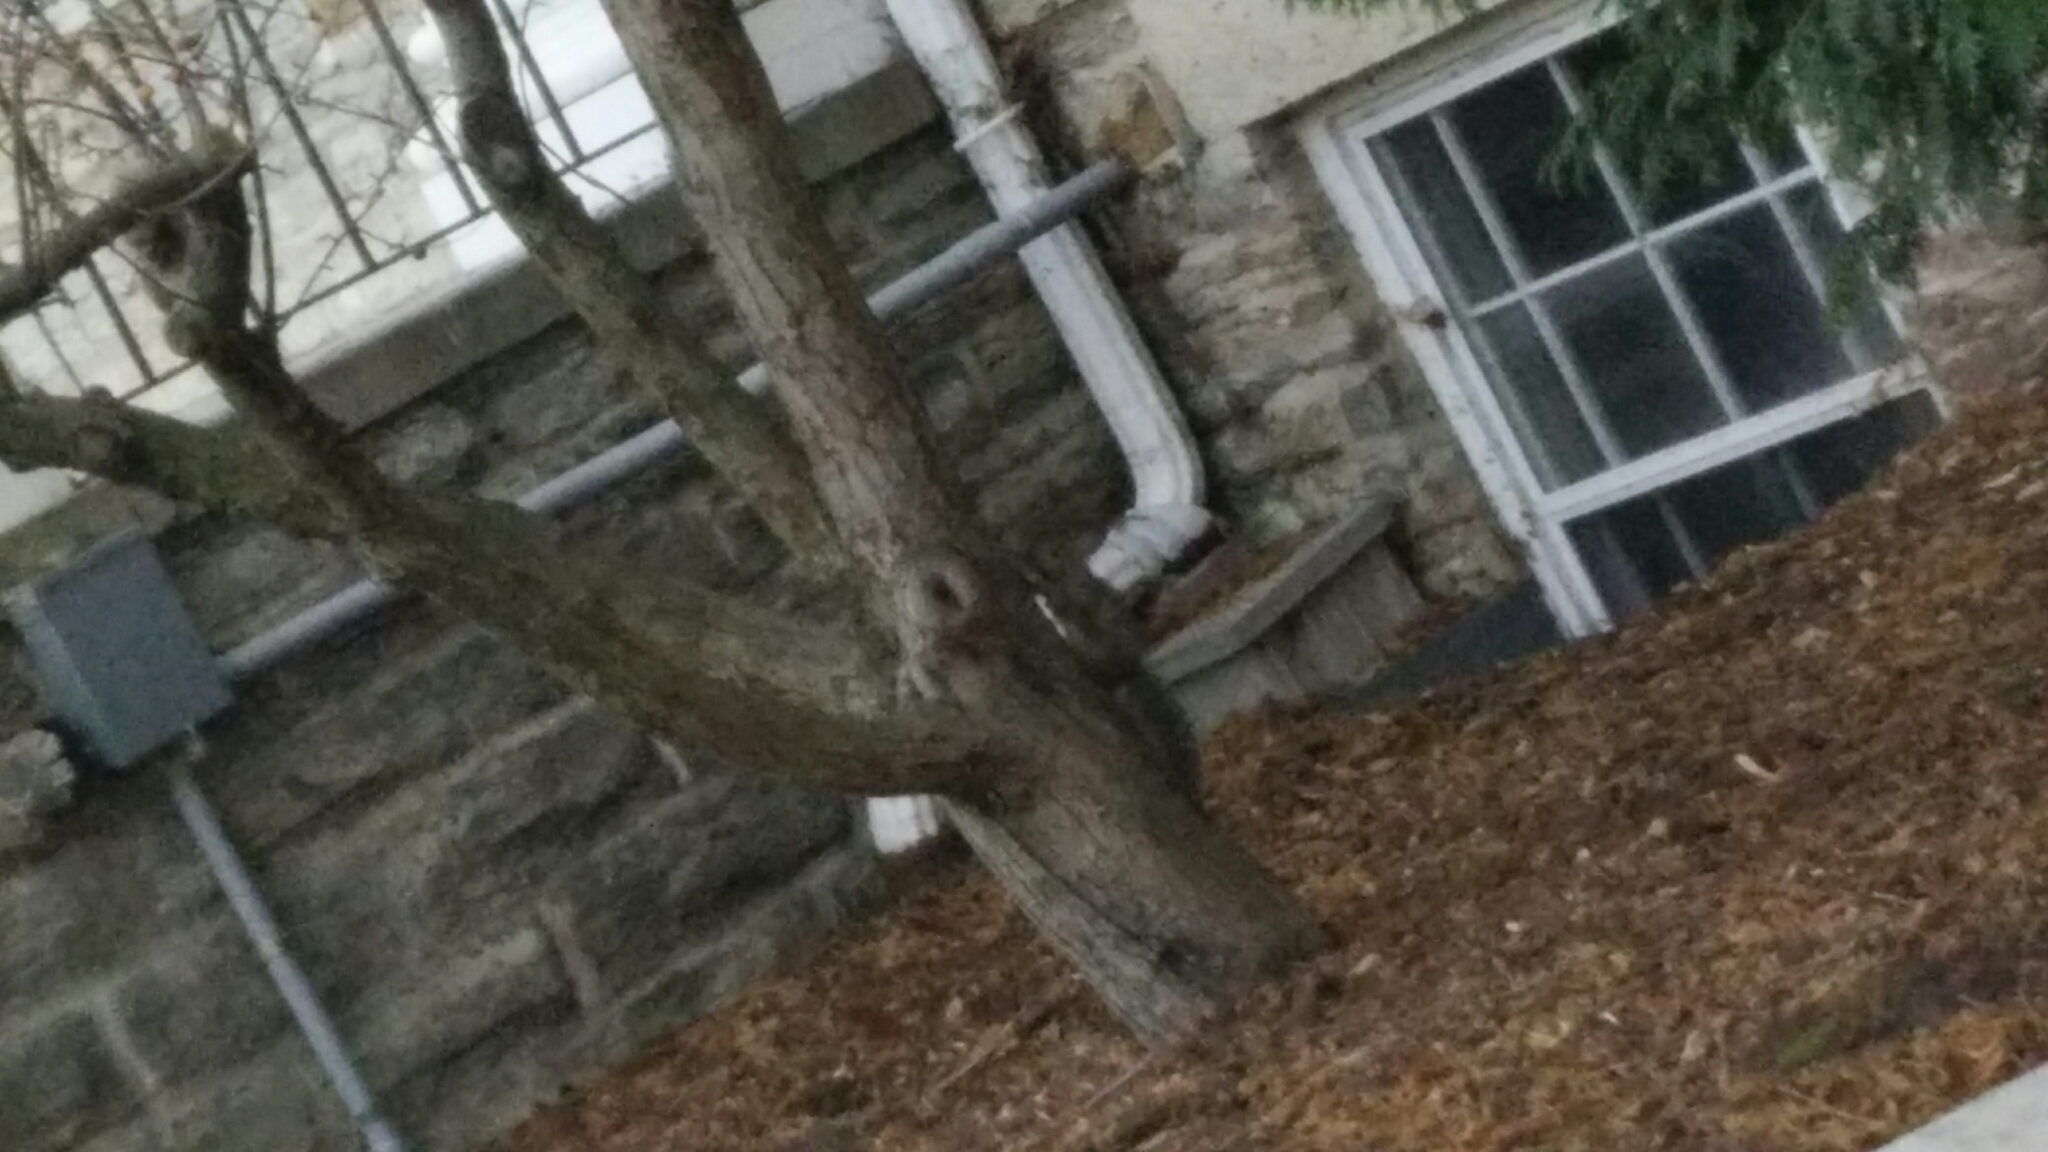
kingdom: Animalia
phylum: Chordata
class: Mammalia
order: Rodentia
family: Sciuridae
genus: Sciurus
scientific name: Sciurus carolinensis
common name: Eastern gray squirrel
